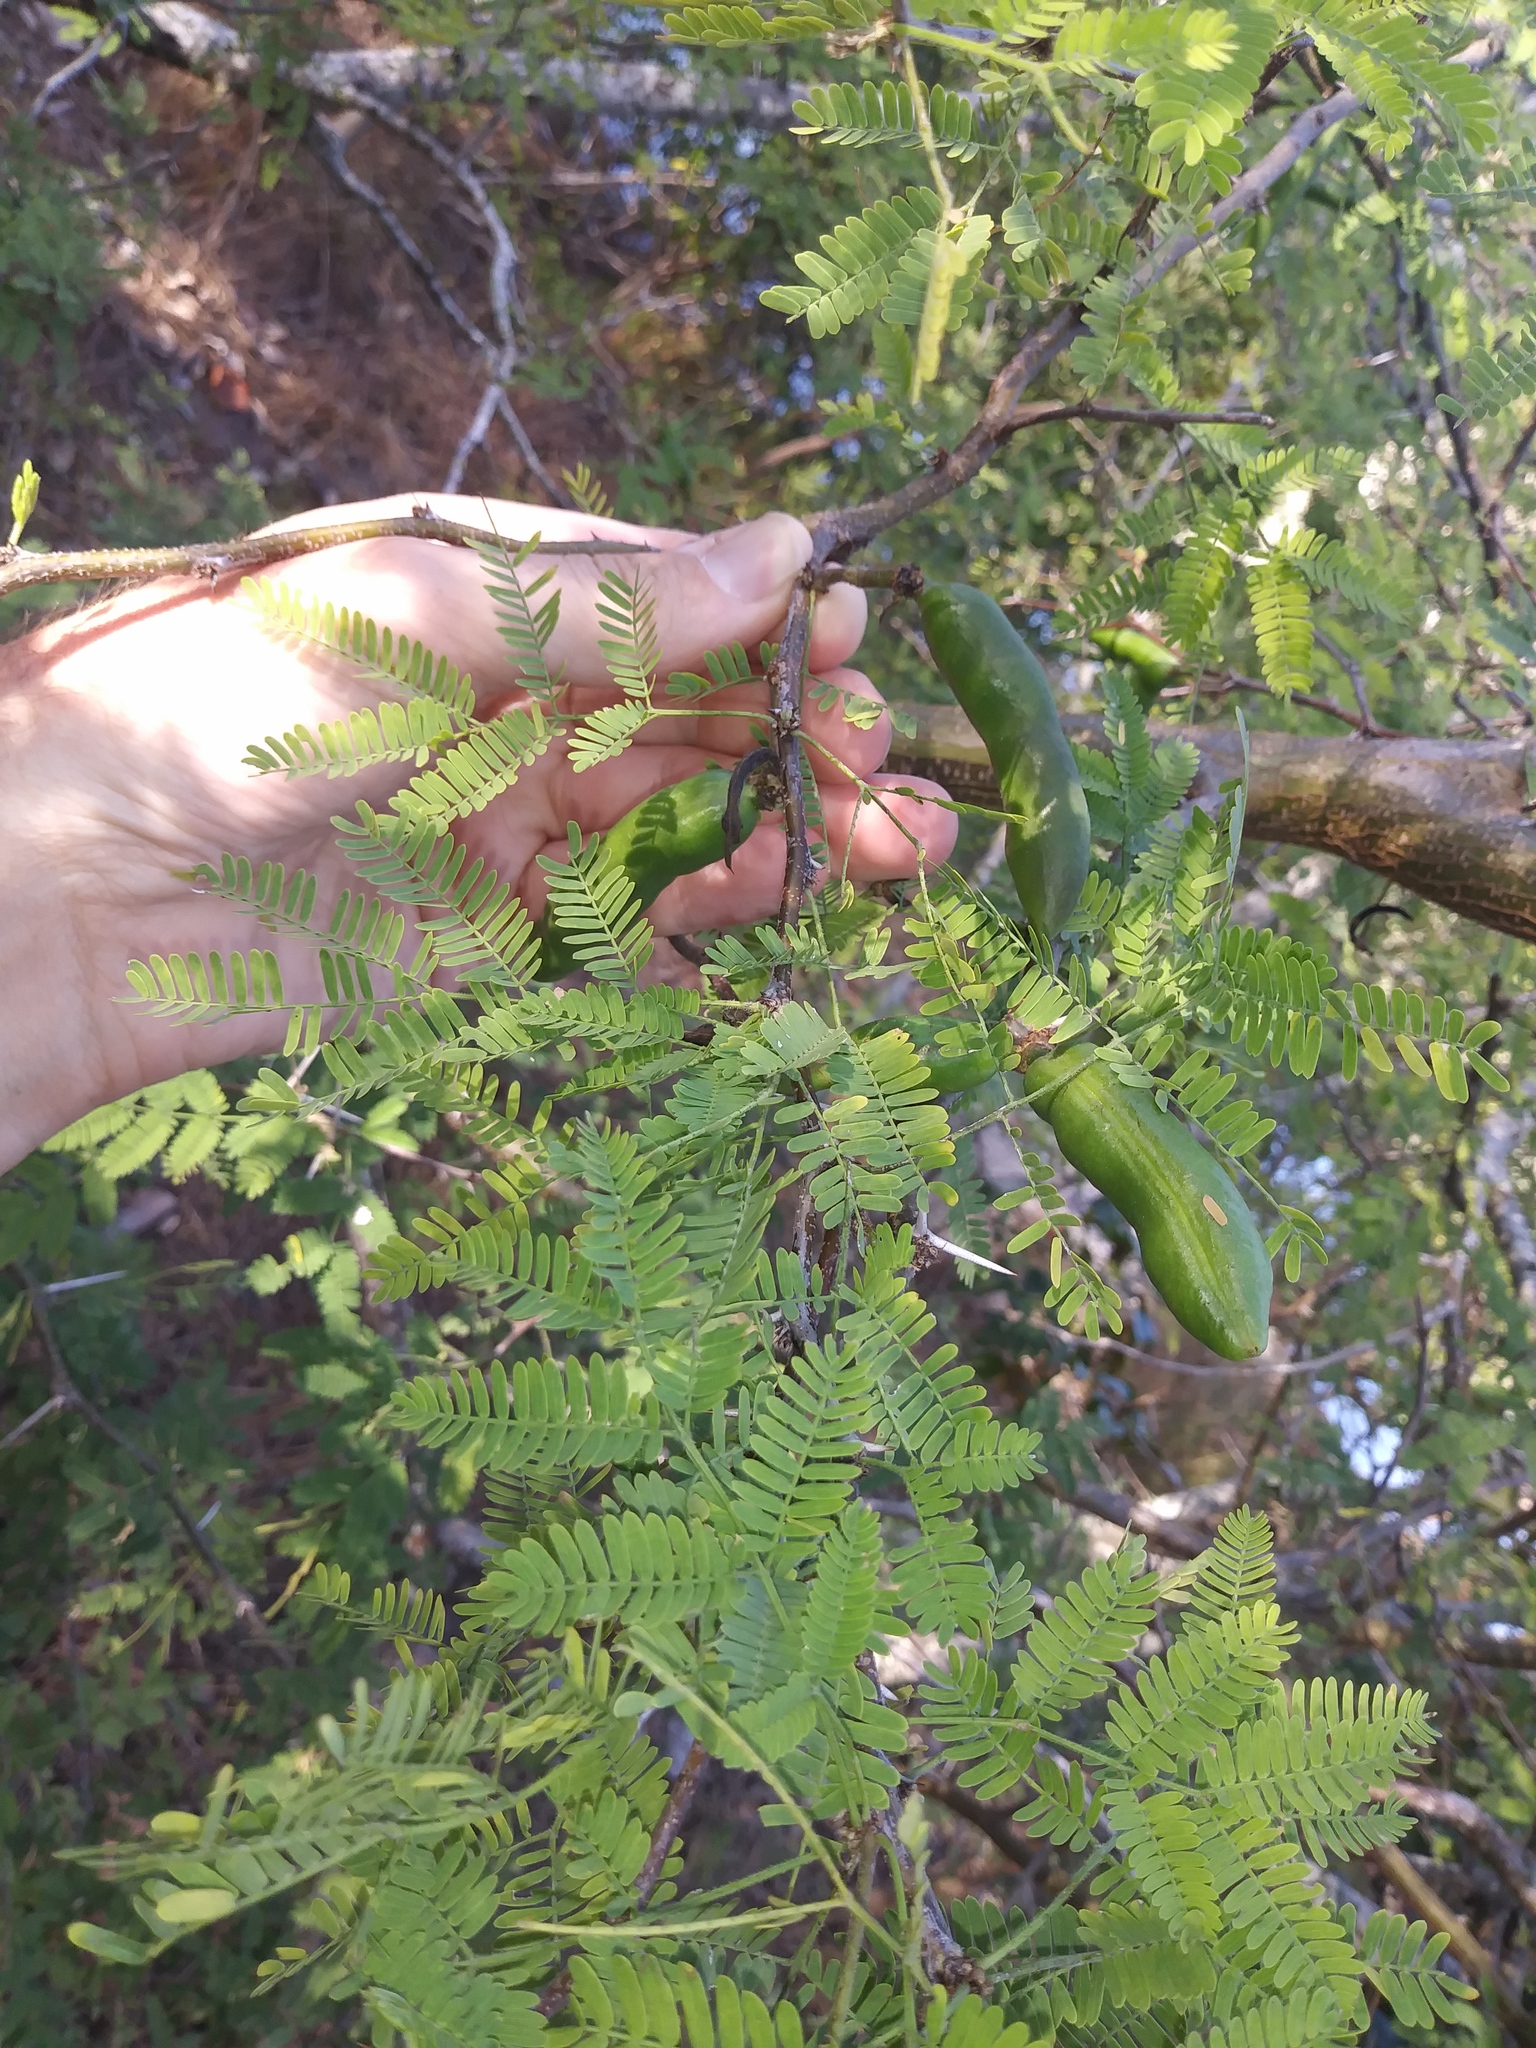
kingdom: Plantae
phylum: Tracheophyta
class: Magnoliopsida
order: Fabales
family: Fabaceae
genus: Vachellia
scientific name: Vachellia farnesiana
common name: Sweet acacia
